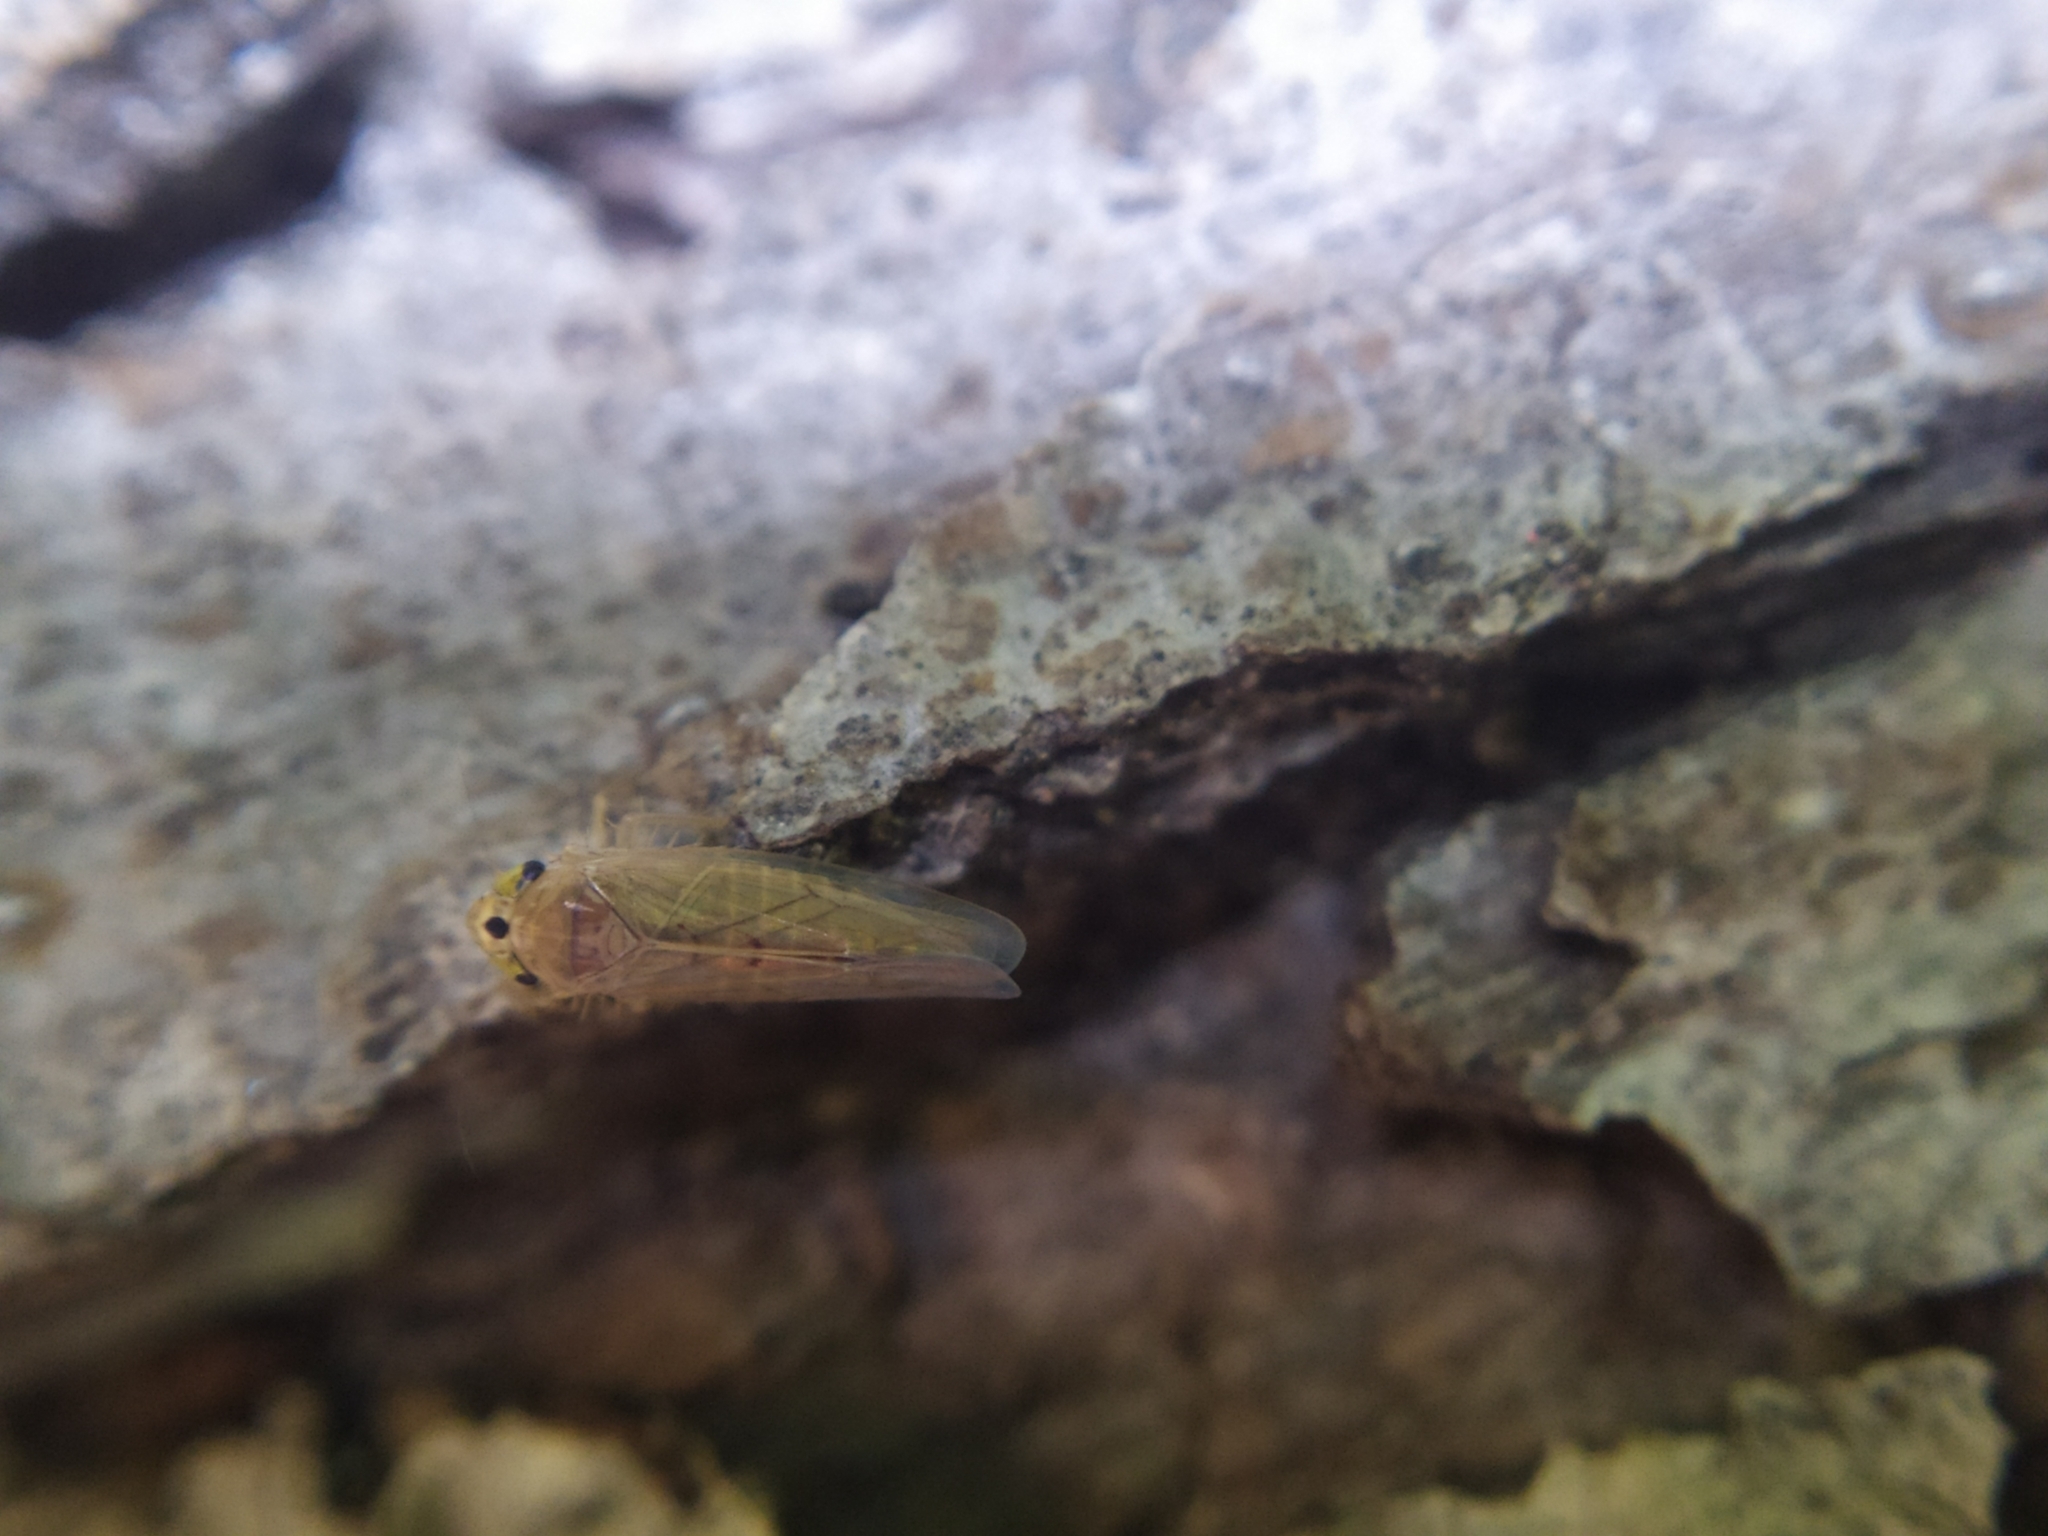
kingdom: Animalia
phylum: Arthropoda
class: Insecta
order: Hemiptera
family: Cicadellidae
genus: Phlogotettix
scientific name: Phlogotettix cyclops
